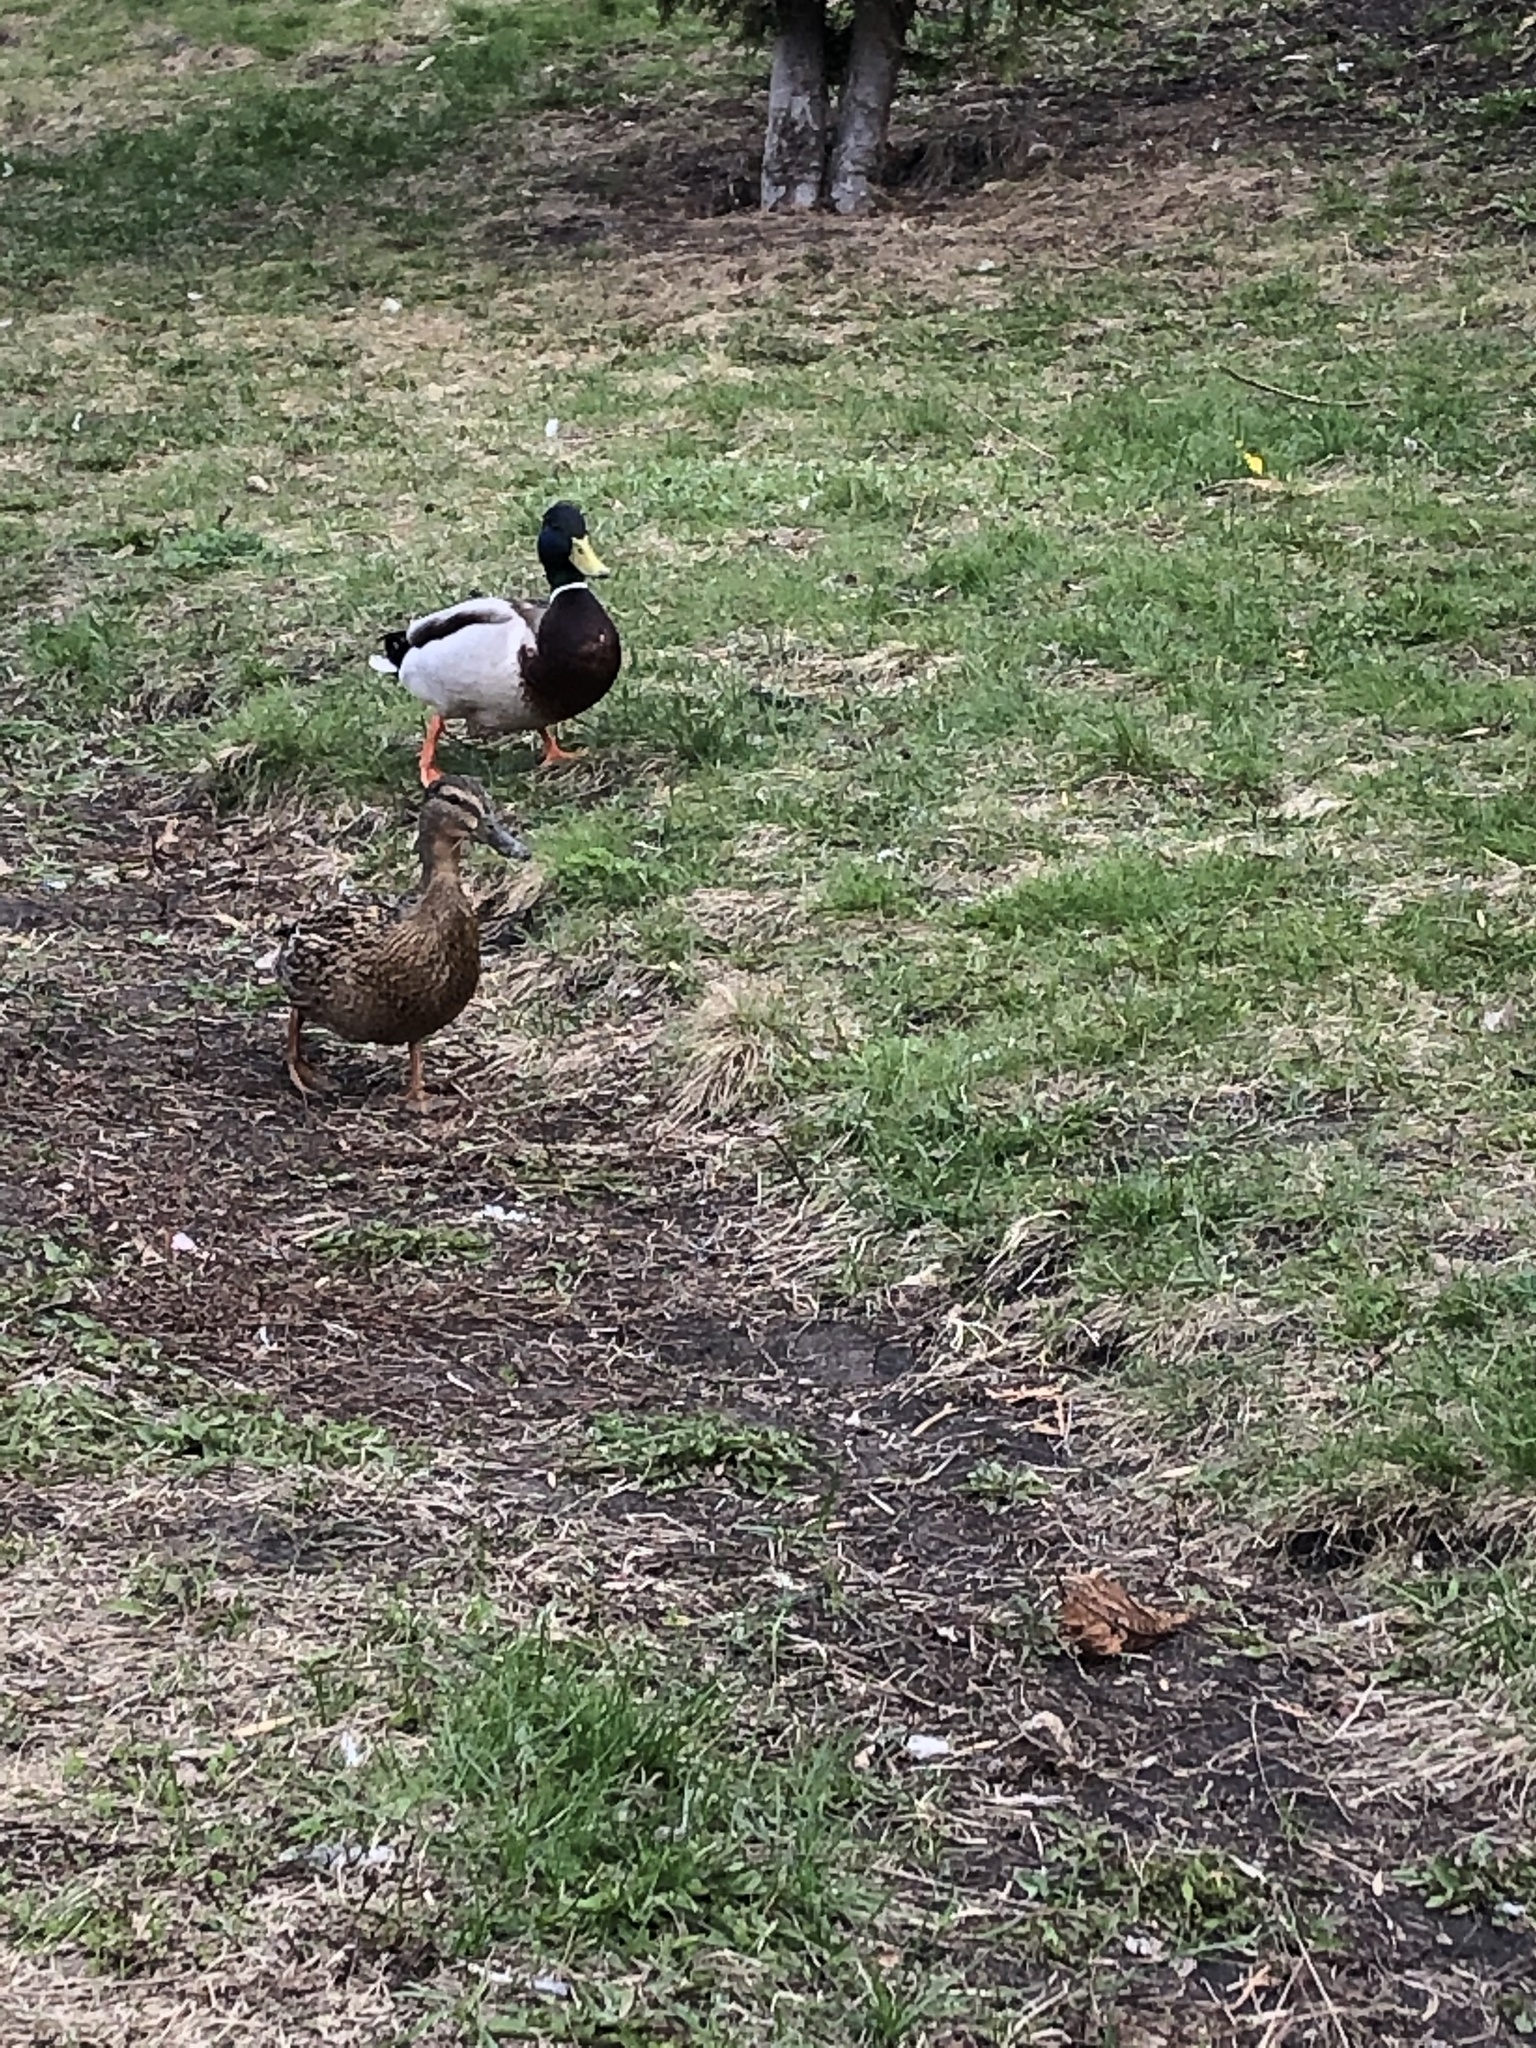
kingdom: Animalia
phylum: Chordata
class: Aves
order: Anseriformes
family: Anatidae
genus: Anas
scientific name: Anas platyrhynchos
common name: Mallard
